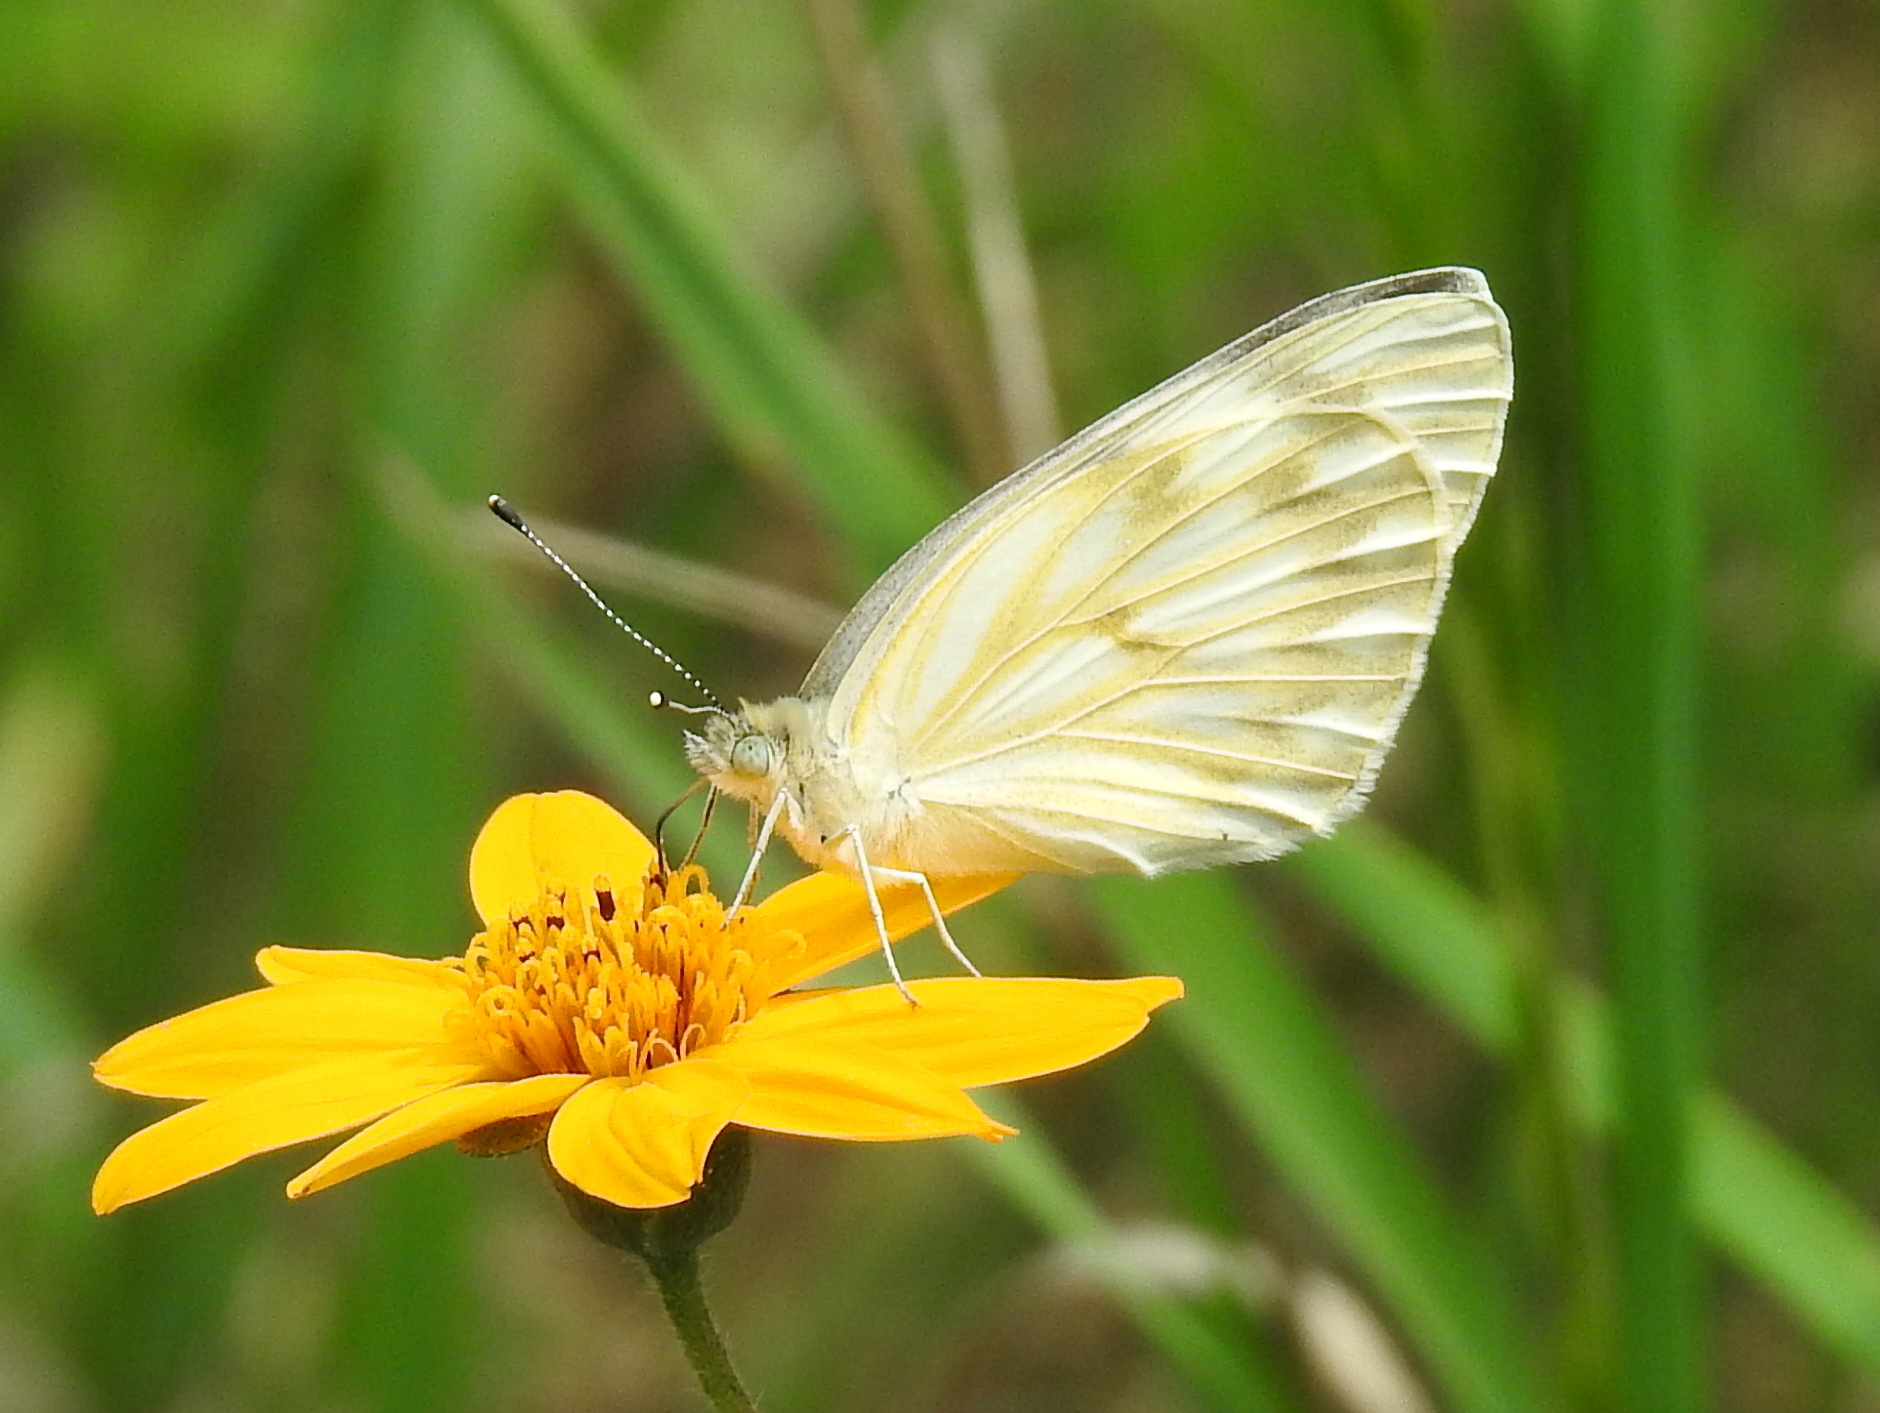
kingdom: Animalia
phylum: Arthropoda
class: Insecta
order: Lepidoptera
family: Pieridae
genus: Pontia
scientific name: Pontia protodice
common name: Checkered white
